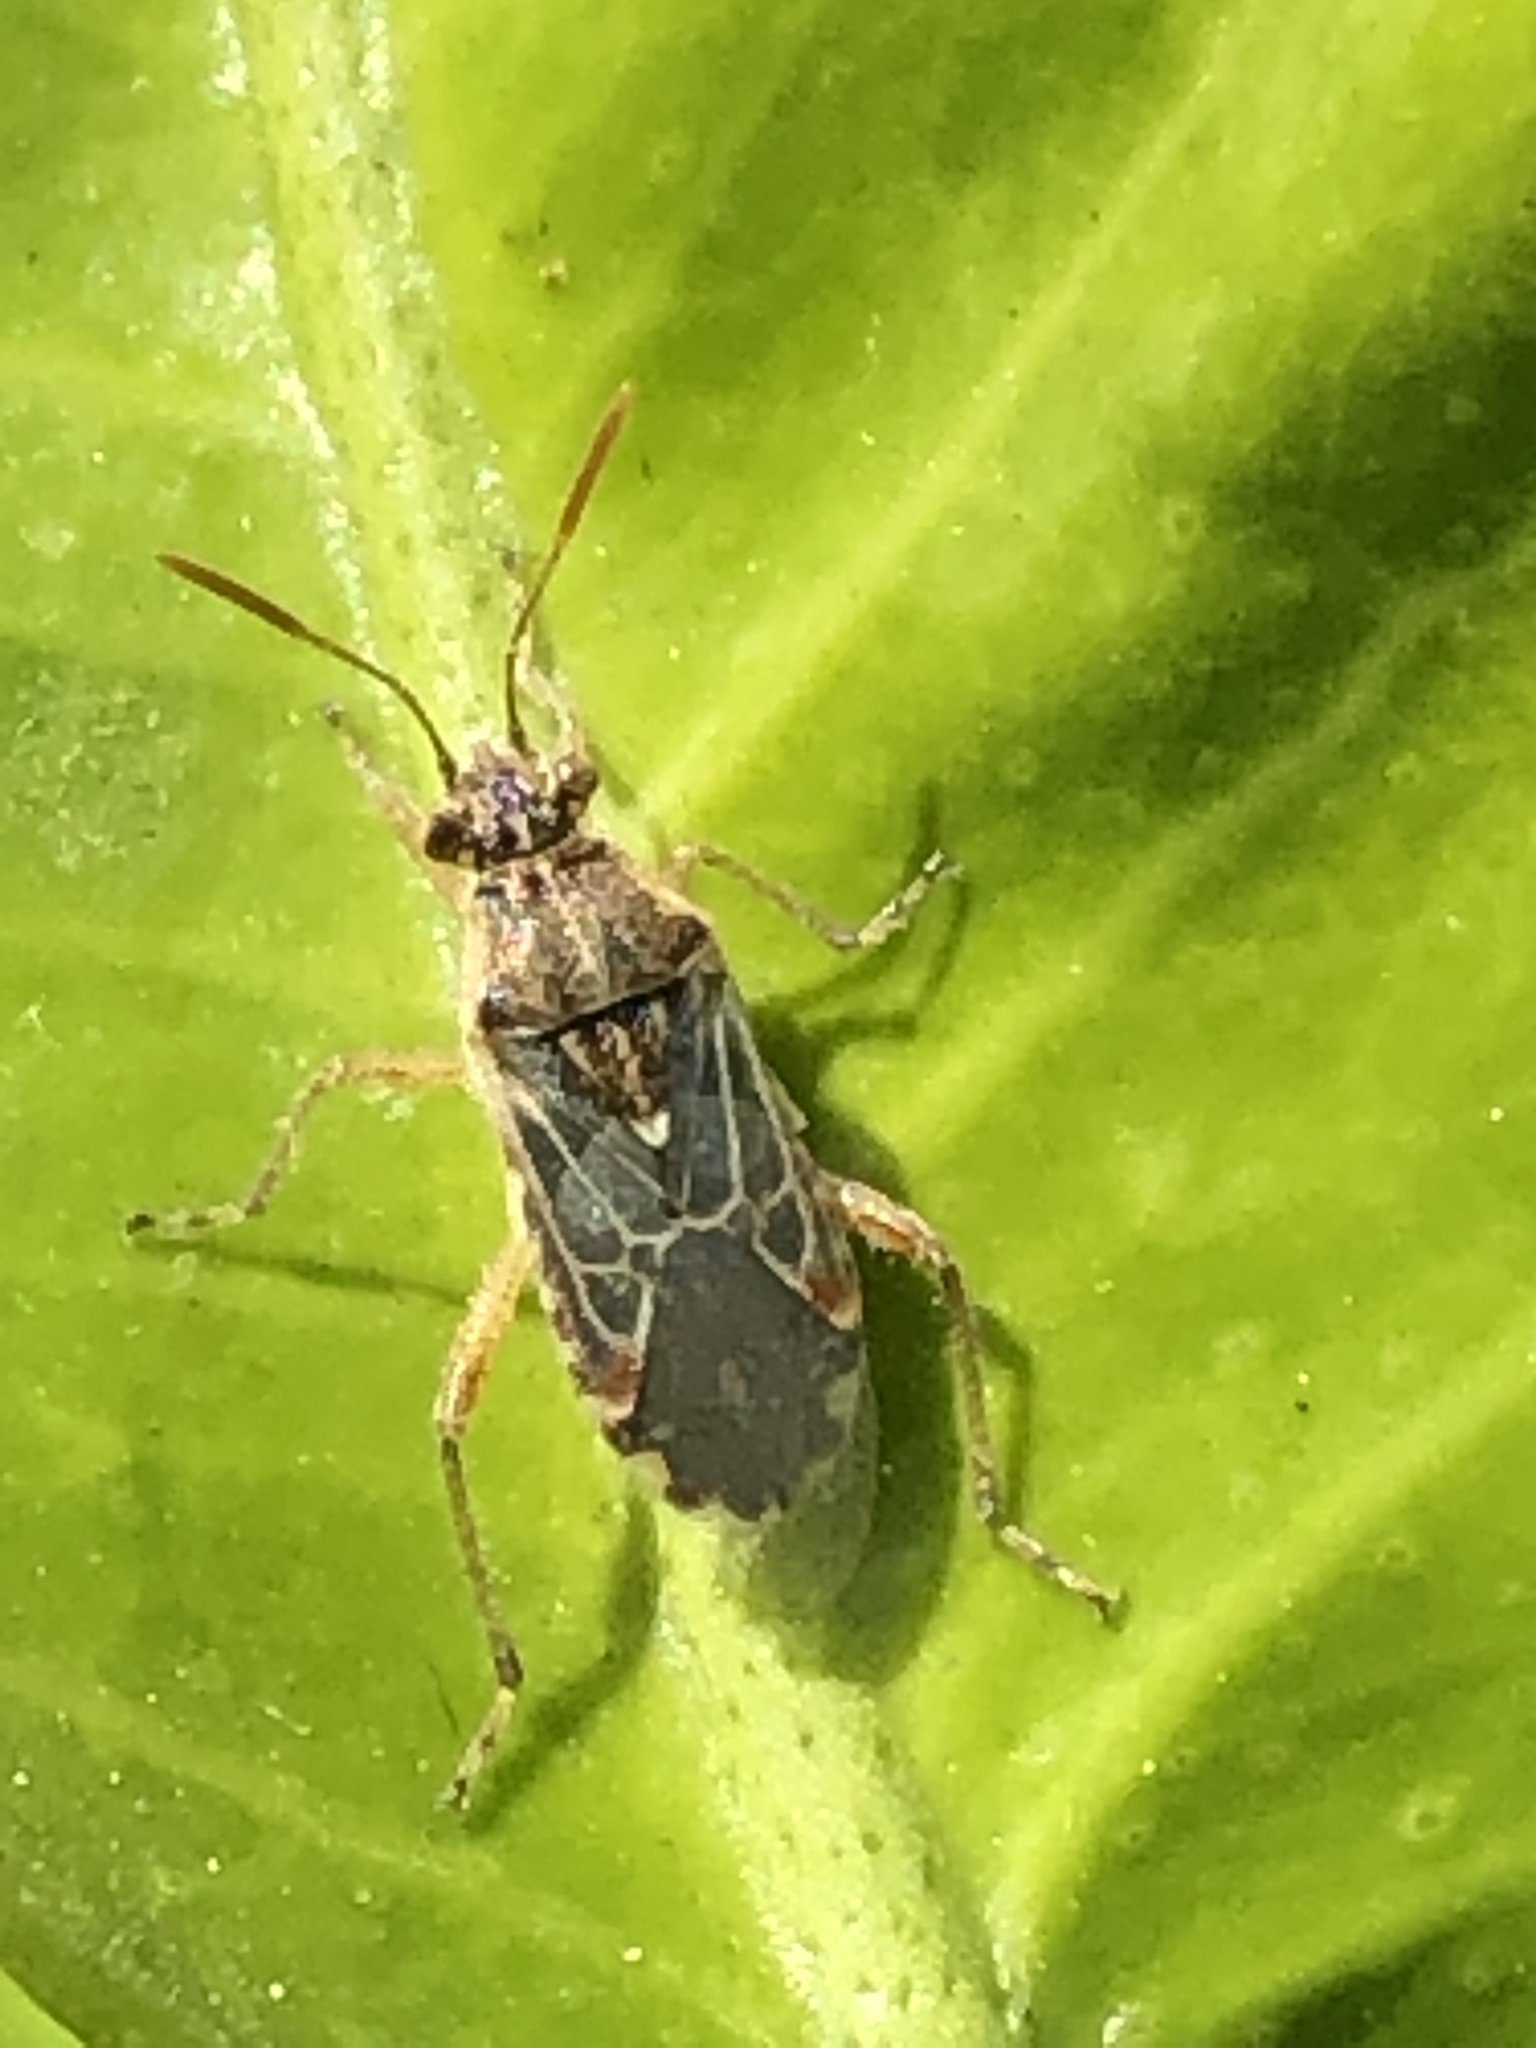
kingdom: Animalia
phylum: Arthropoda
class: Insecta
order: Hemiptera
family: Rhopalidae
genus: Liorhyssus
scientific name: Liorhyssus hyalinus
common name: Scentless plant bug
